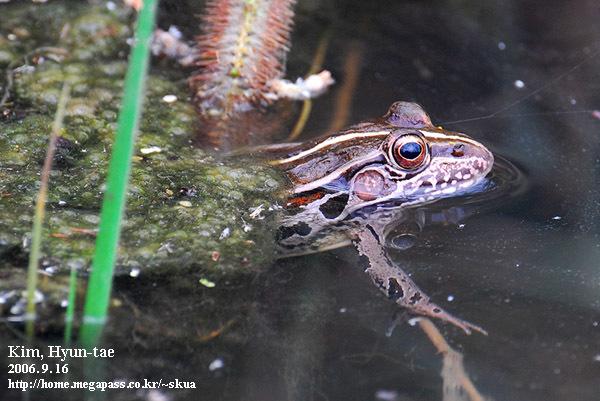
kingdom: Animalia
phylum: Chordata
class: Amphibia
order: Anura
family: Ranidae
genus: Pelophylax
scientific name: Pelophylax nigromaculatus
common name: Black-spotted pond frog
